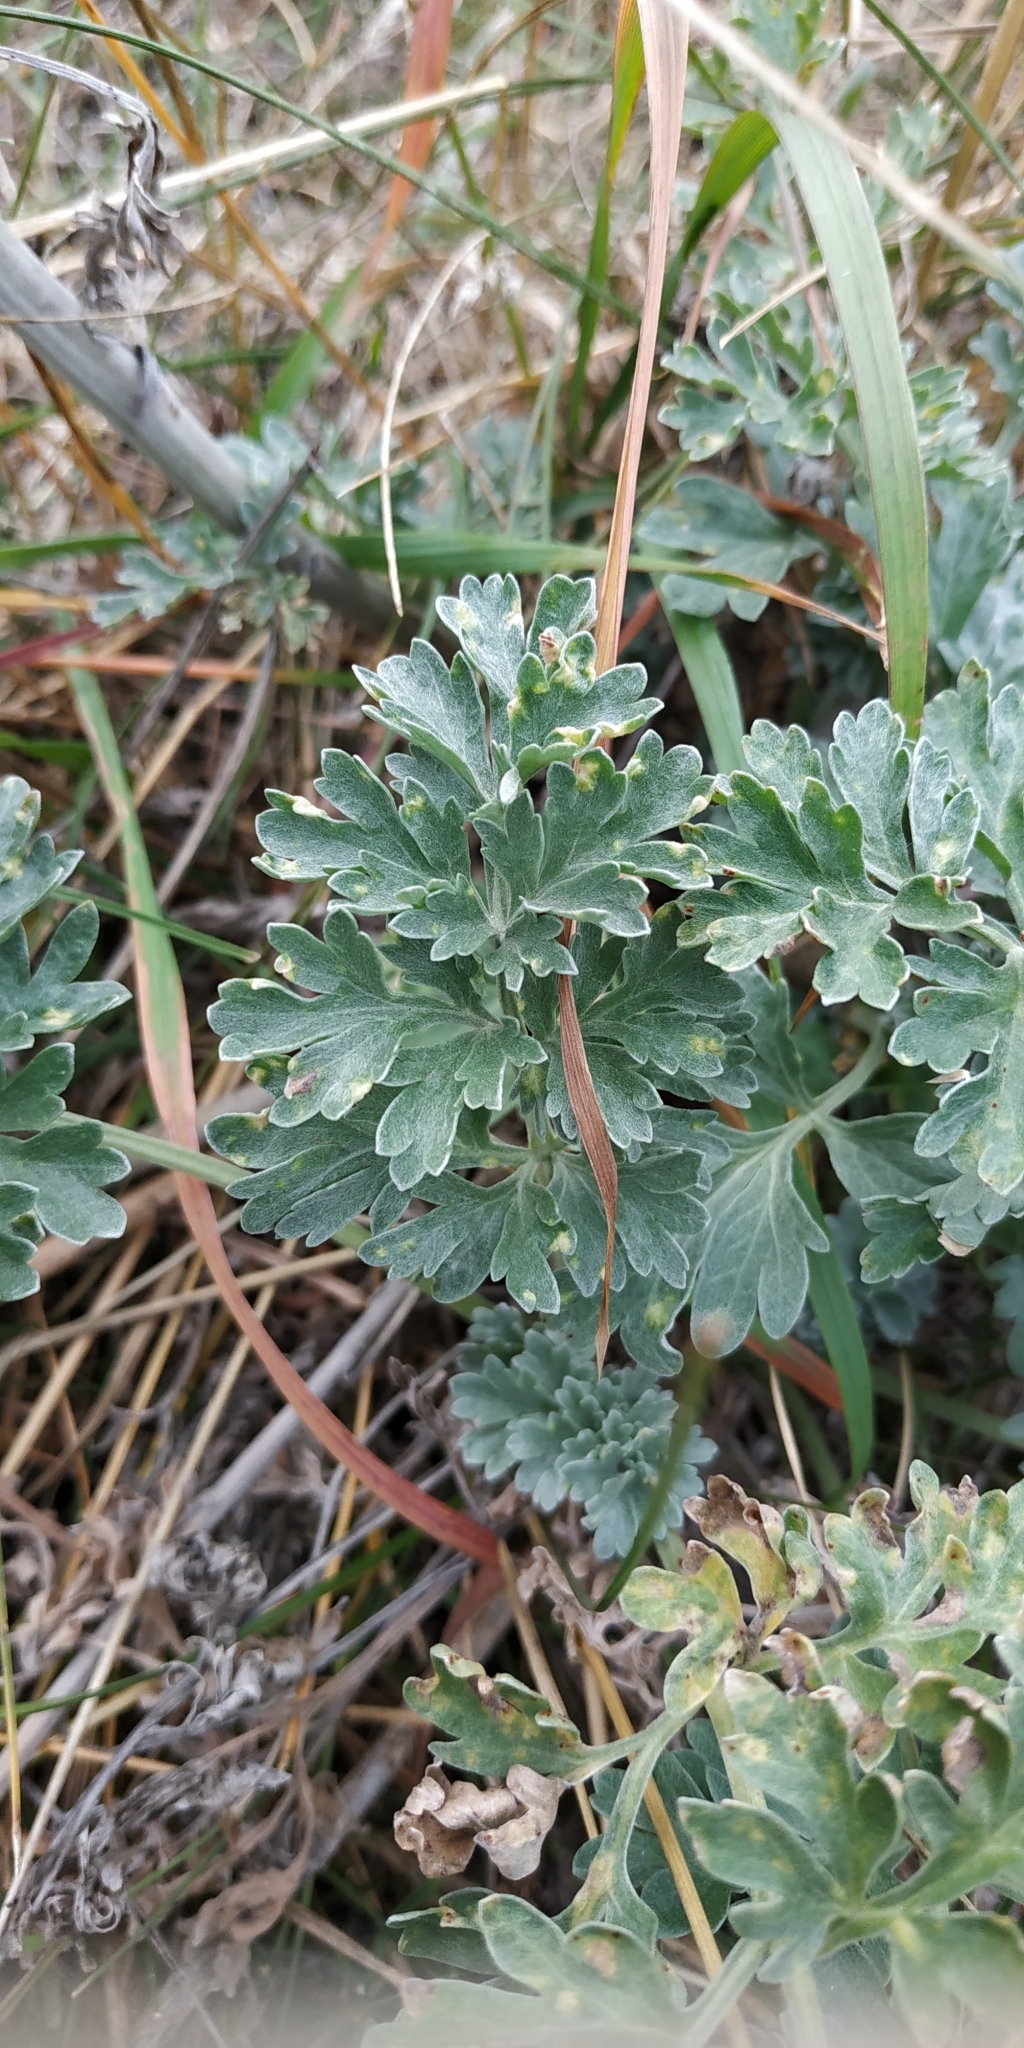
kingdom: Plantae
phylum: Tracheophyta
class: Magnoliopsida
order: Asterales
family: Asteraceae
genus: Artemisia
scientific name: Artemisia absinthium
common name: Wormwood
